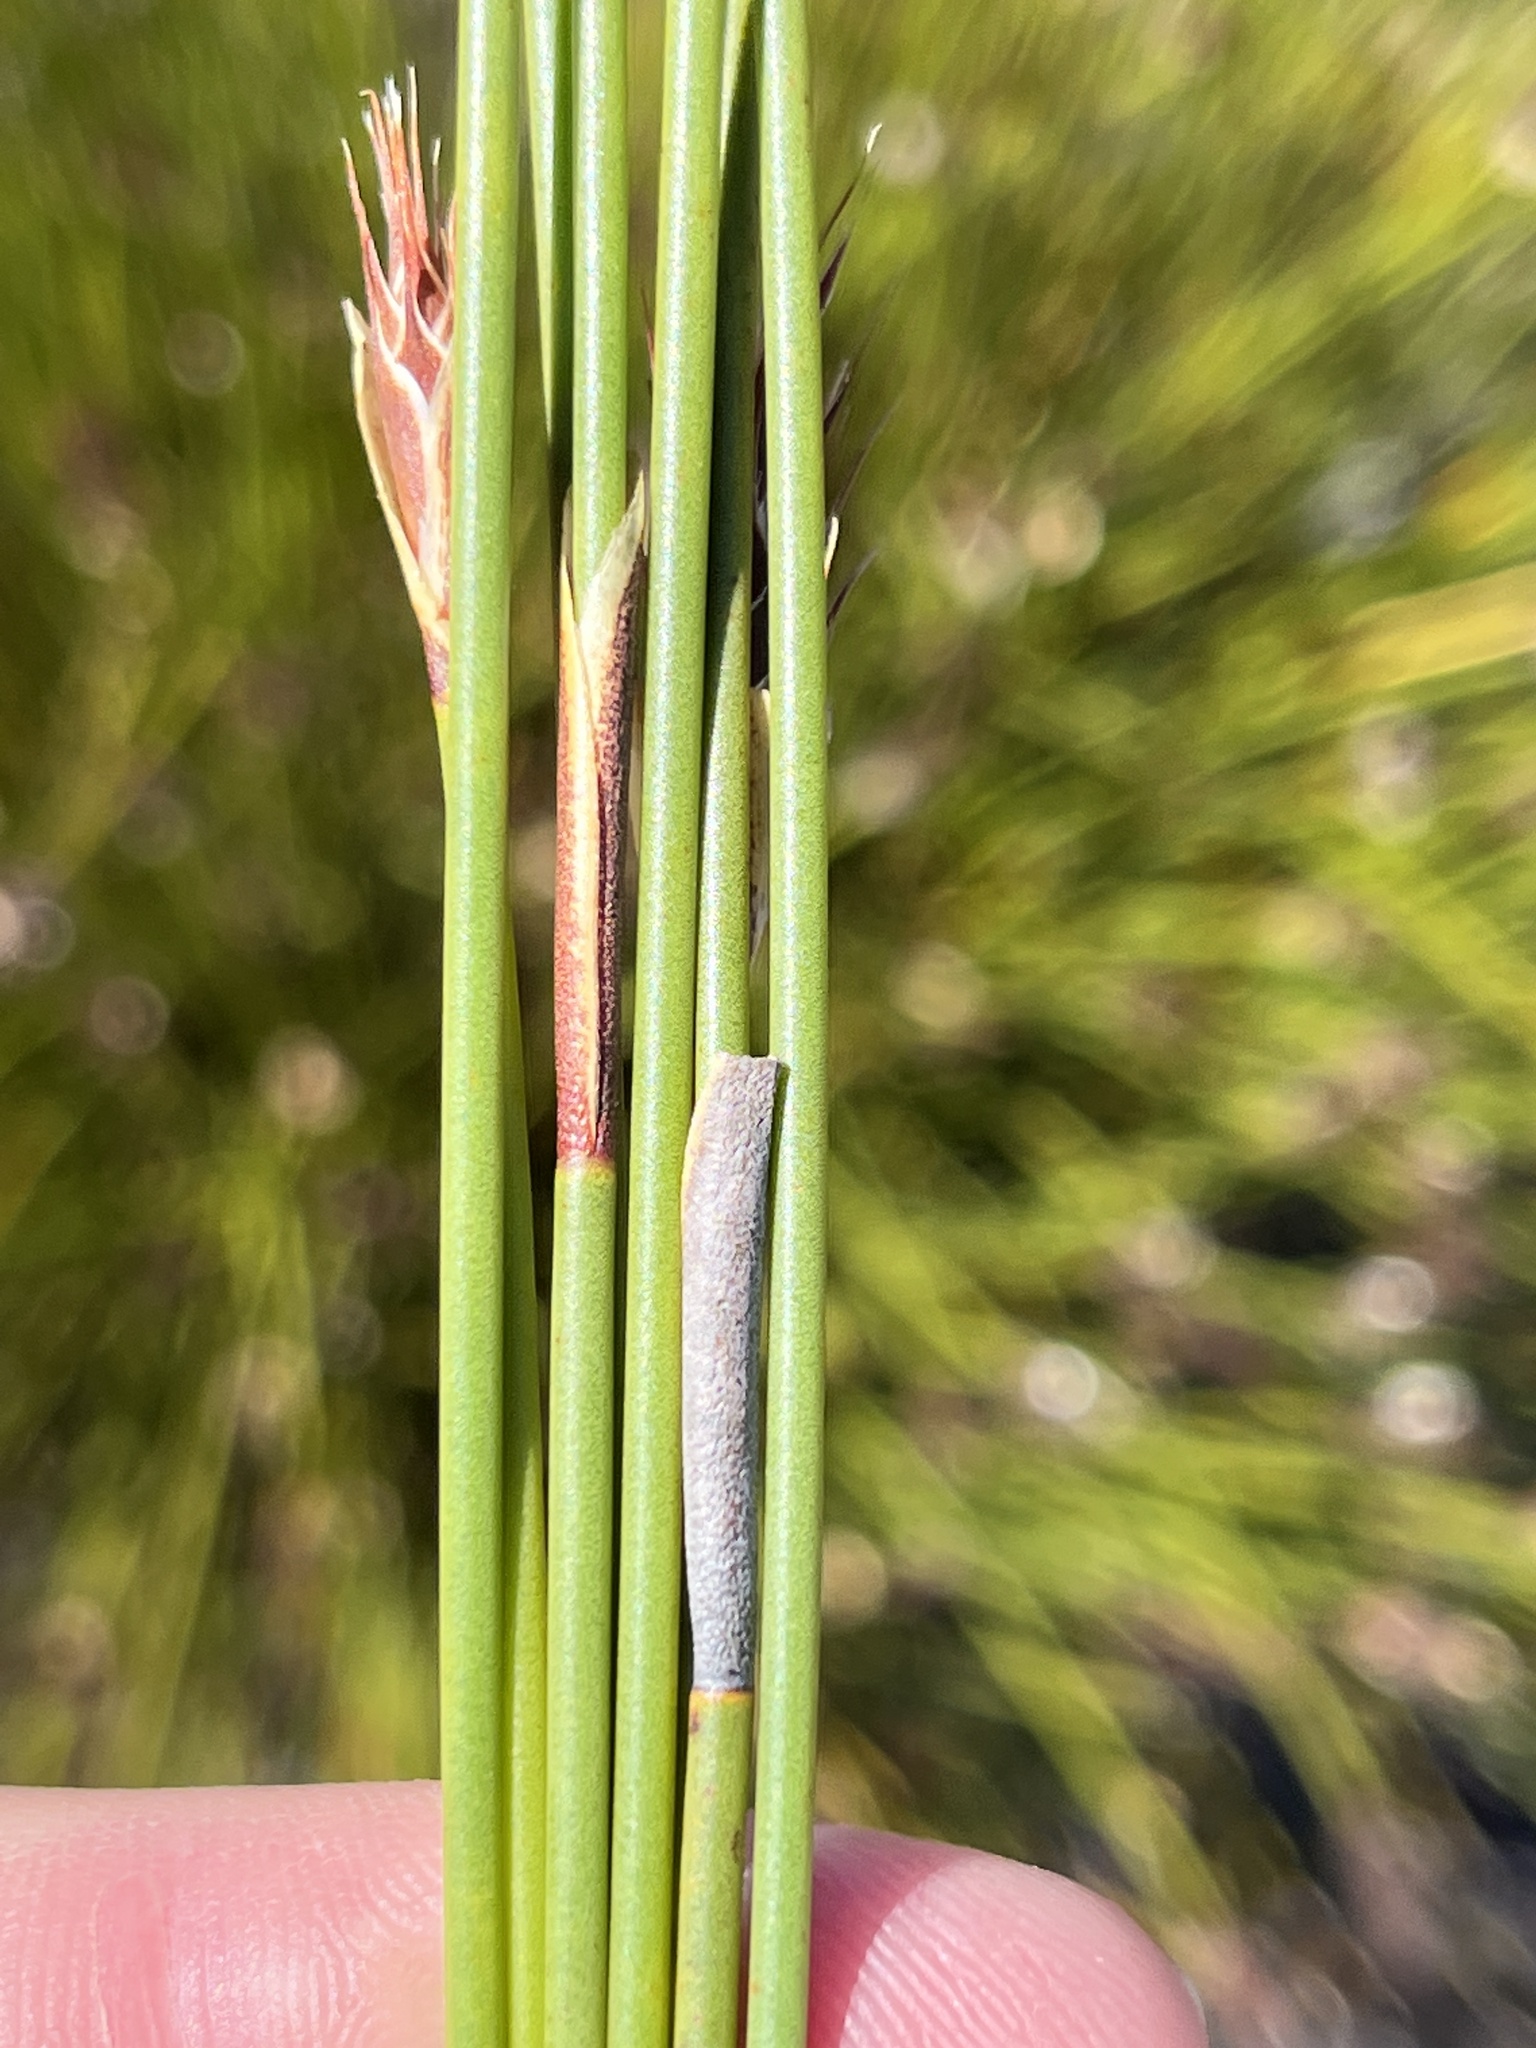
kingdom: Plantae
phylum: Tracheophyta
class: Liliopsida
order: Poales
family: Restionaceae
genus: Hypodiscus
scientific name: Hypodiscus aristatus
